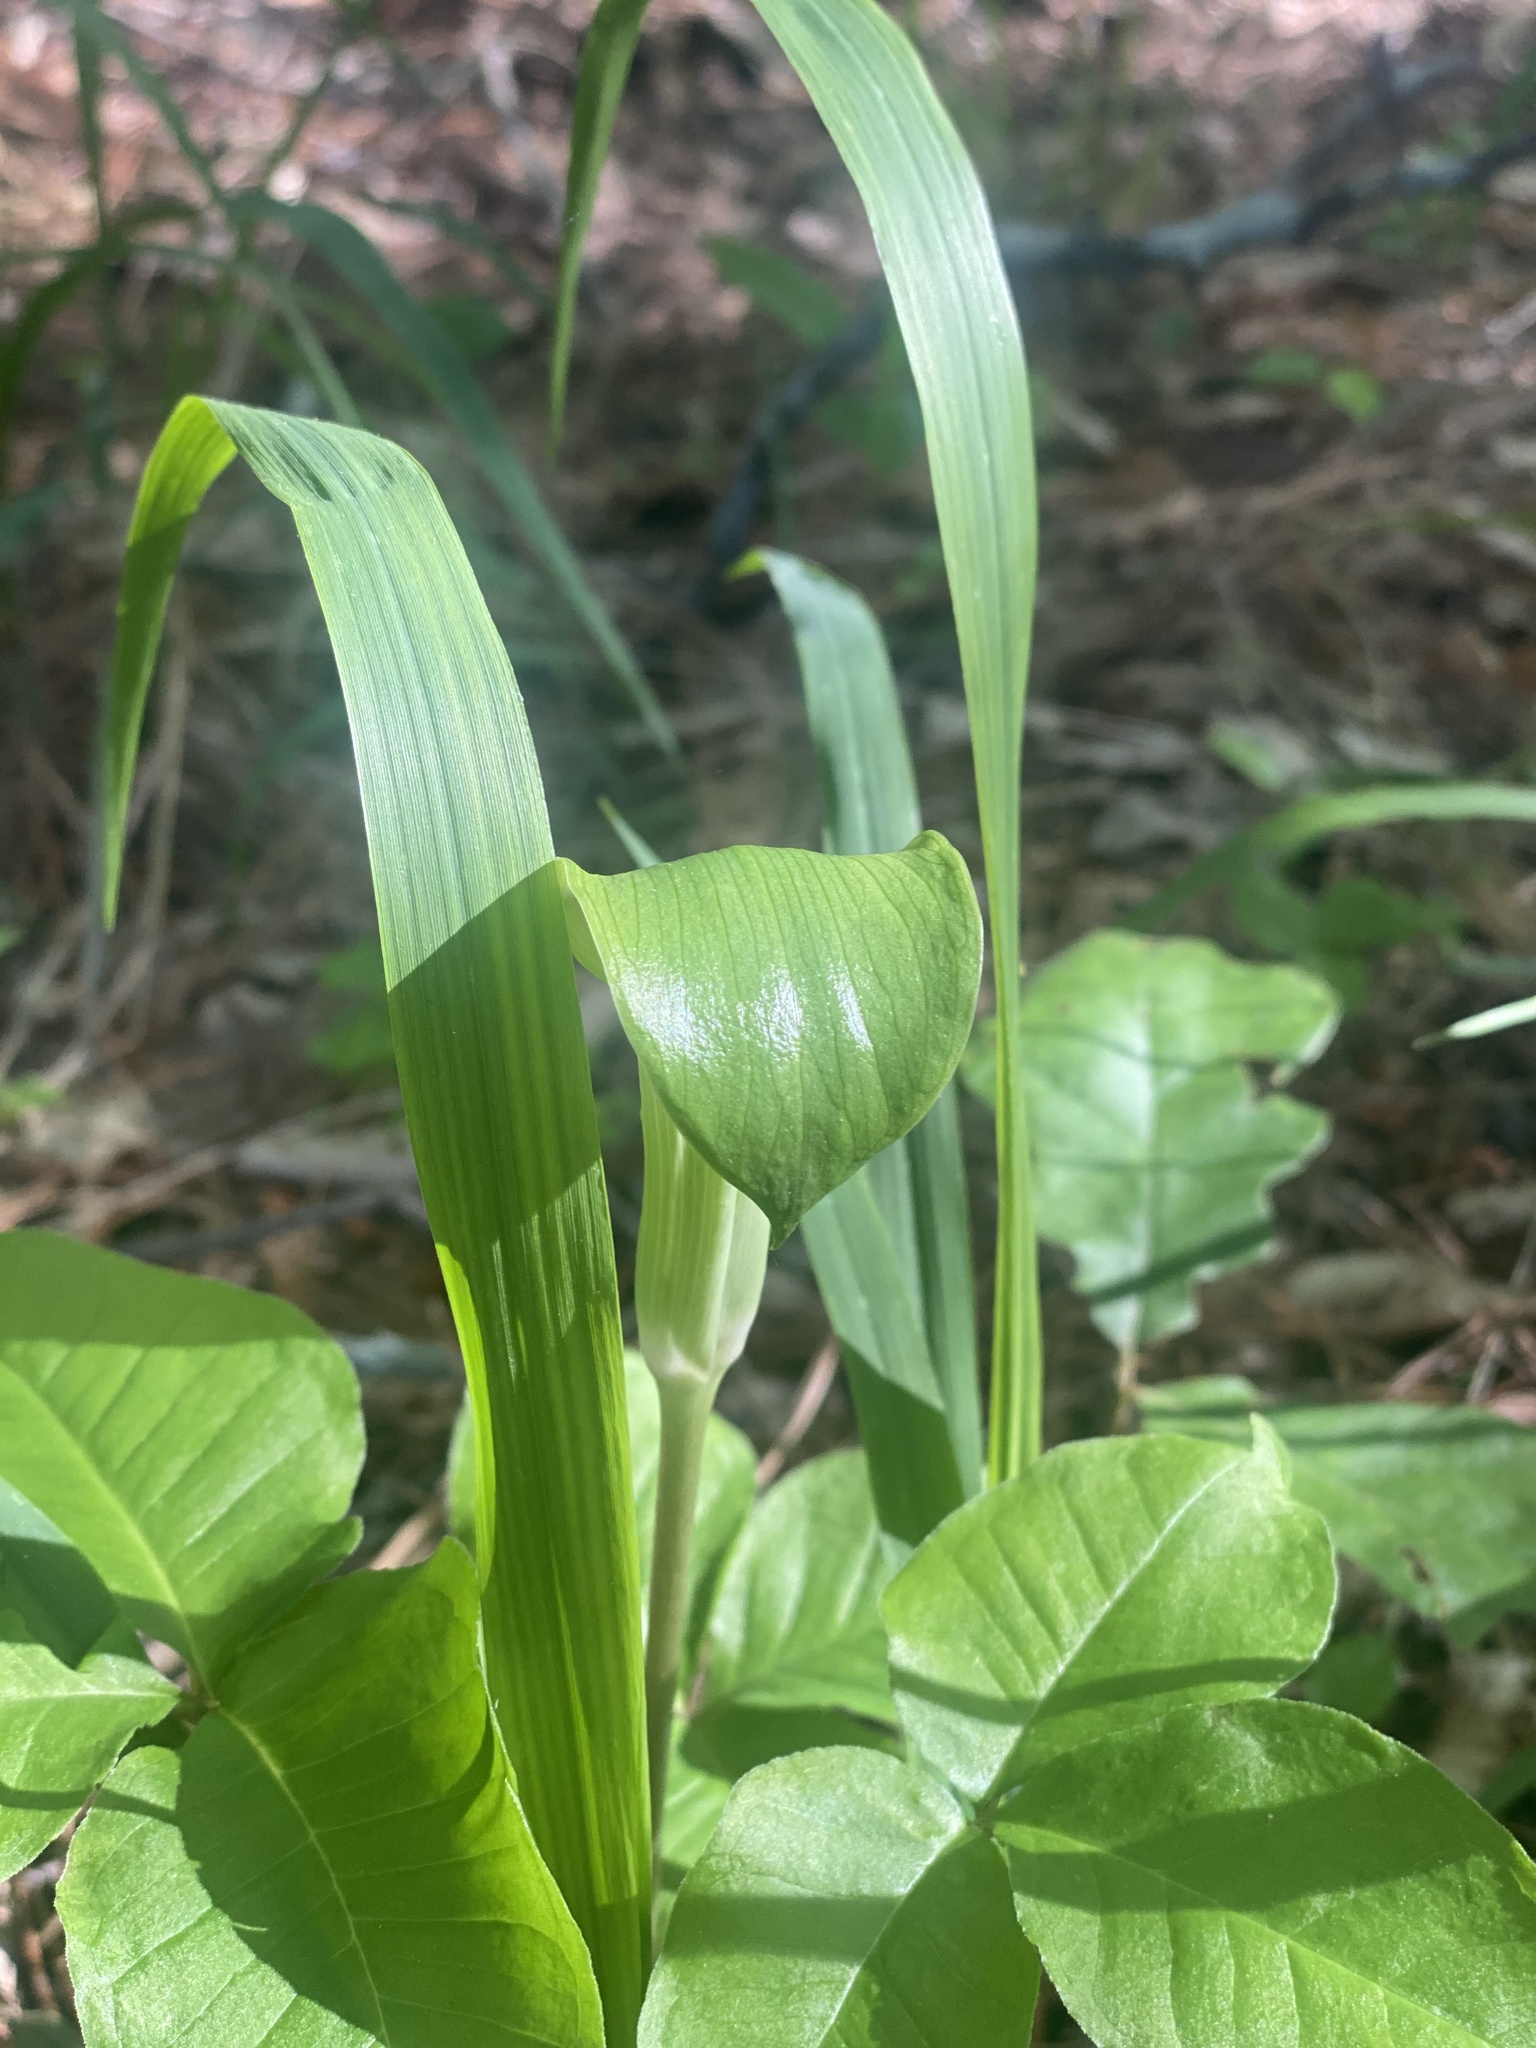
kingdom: Plantae
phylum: Tracheophyta
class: Liliopsida
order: Alismatales
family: Araceae
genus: Arisaema
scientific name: Arisaema quinatum
